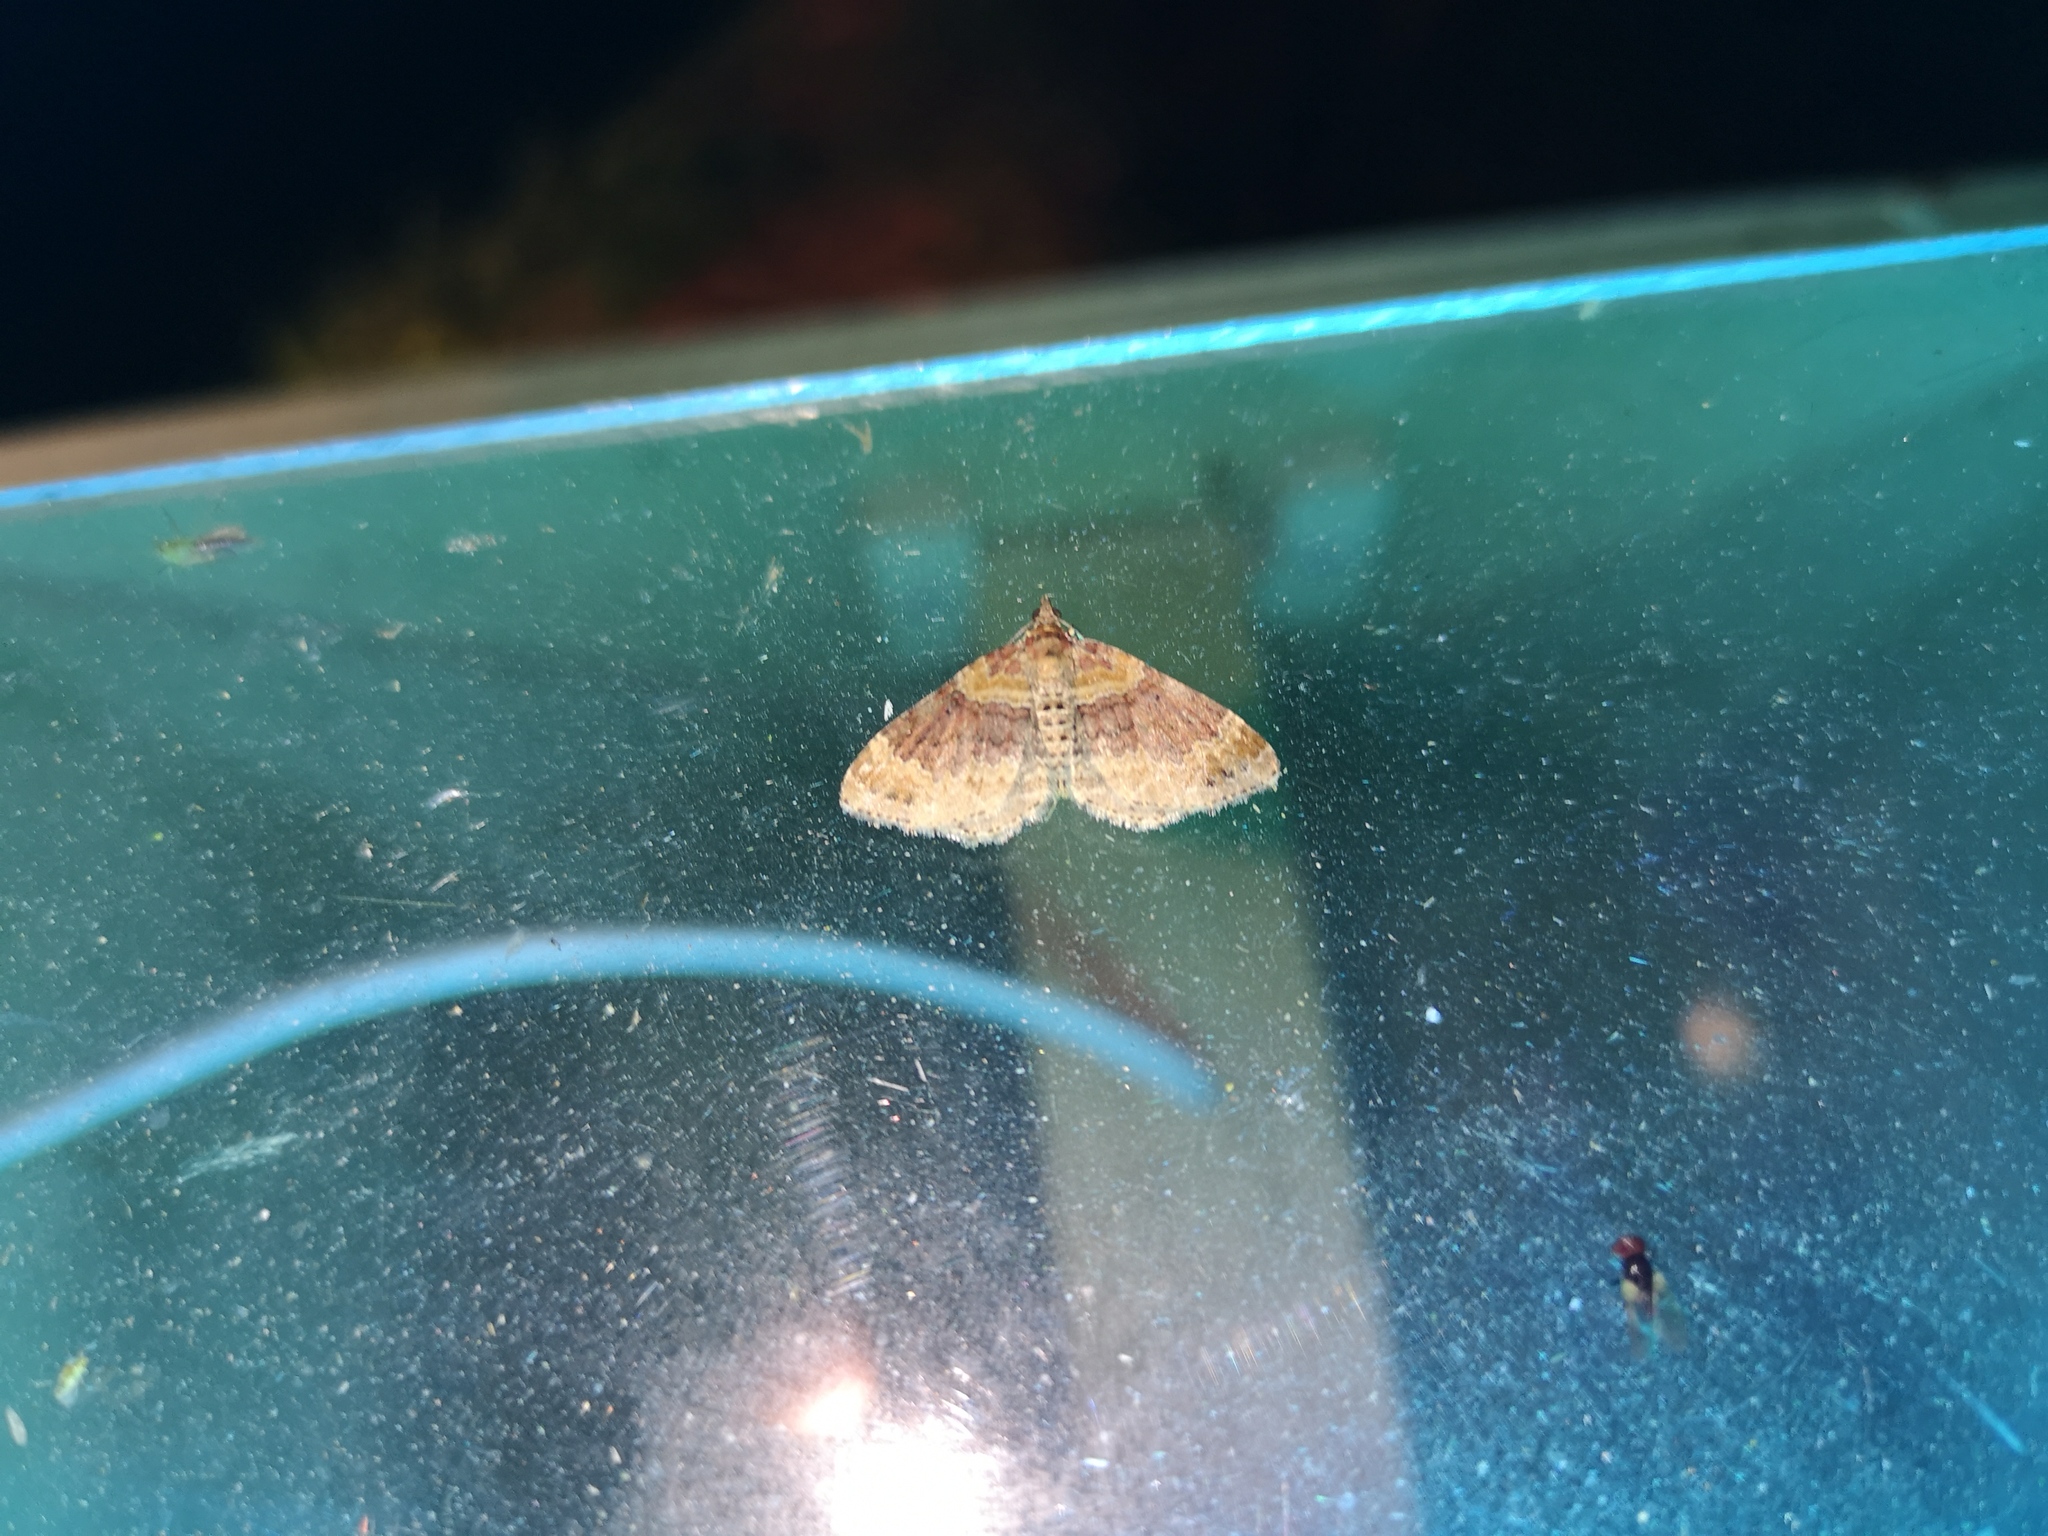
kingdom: Animalia
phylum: Arthropoda
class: Insecta
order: Lepidoptera
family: Geometridae
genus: Xanthorhoe
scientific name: Xanthorhoe ferrugata
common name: Dark-barred twin-spot carpet
